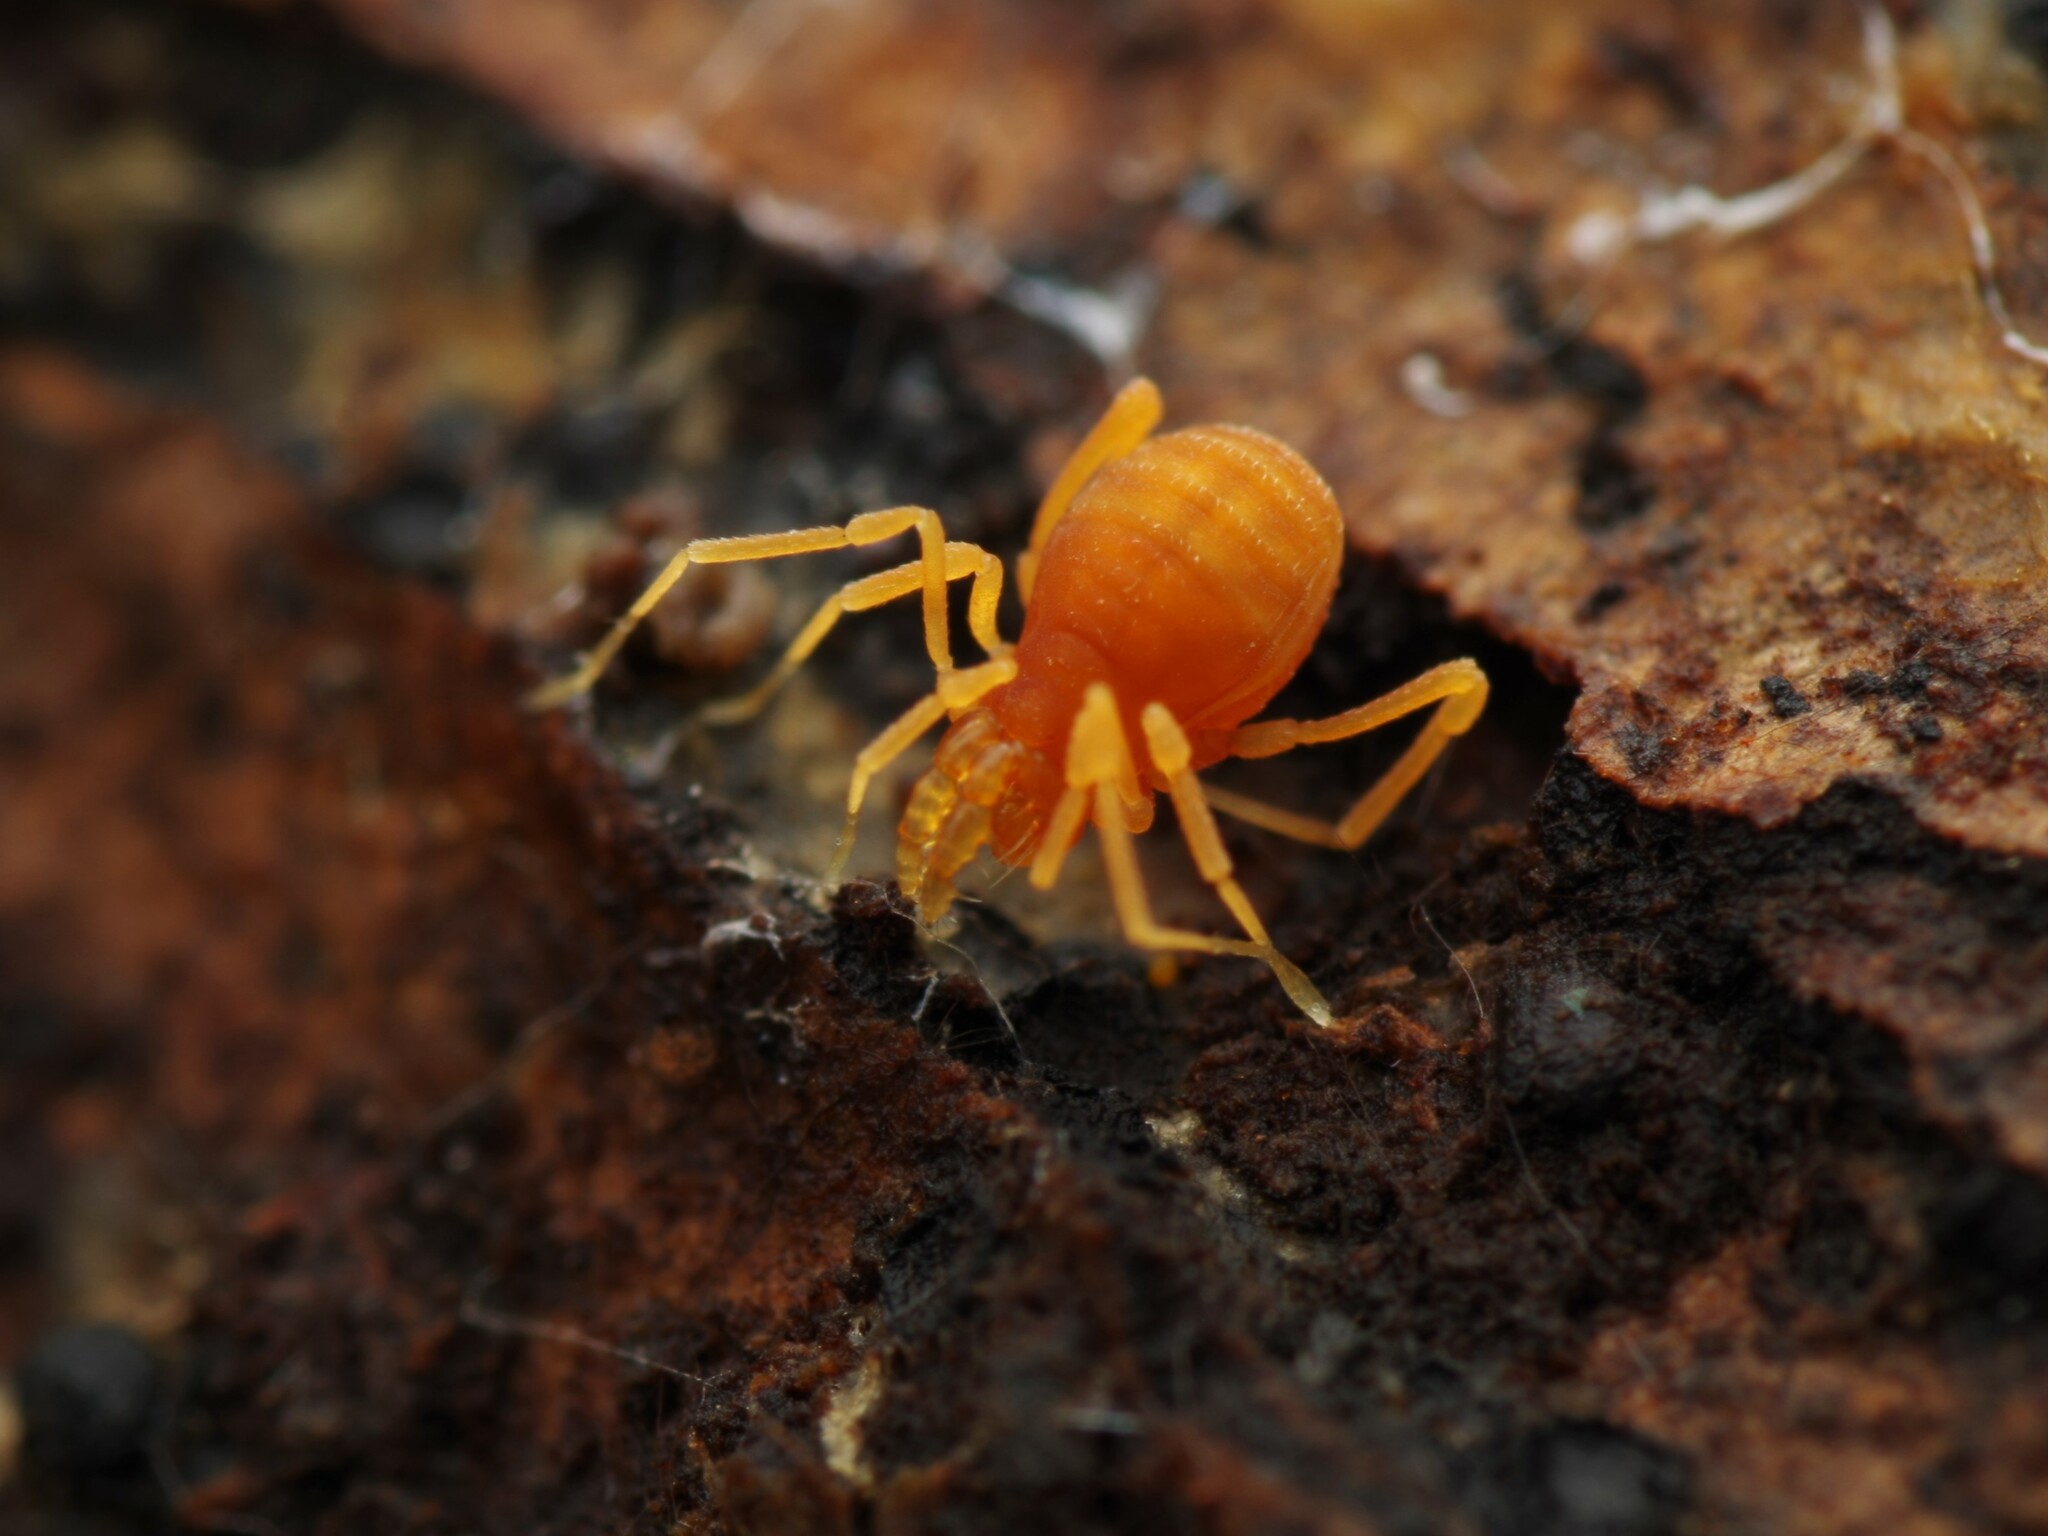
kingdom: Animalia
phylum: Arthropoda
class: Arachnida
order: Opiliones
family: Phalangodidae
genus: Scotolemon
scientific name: Scotolemon doriae
